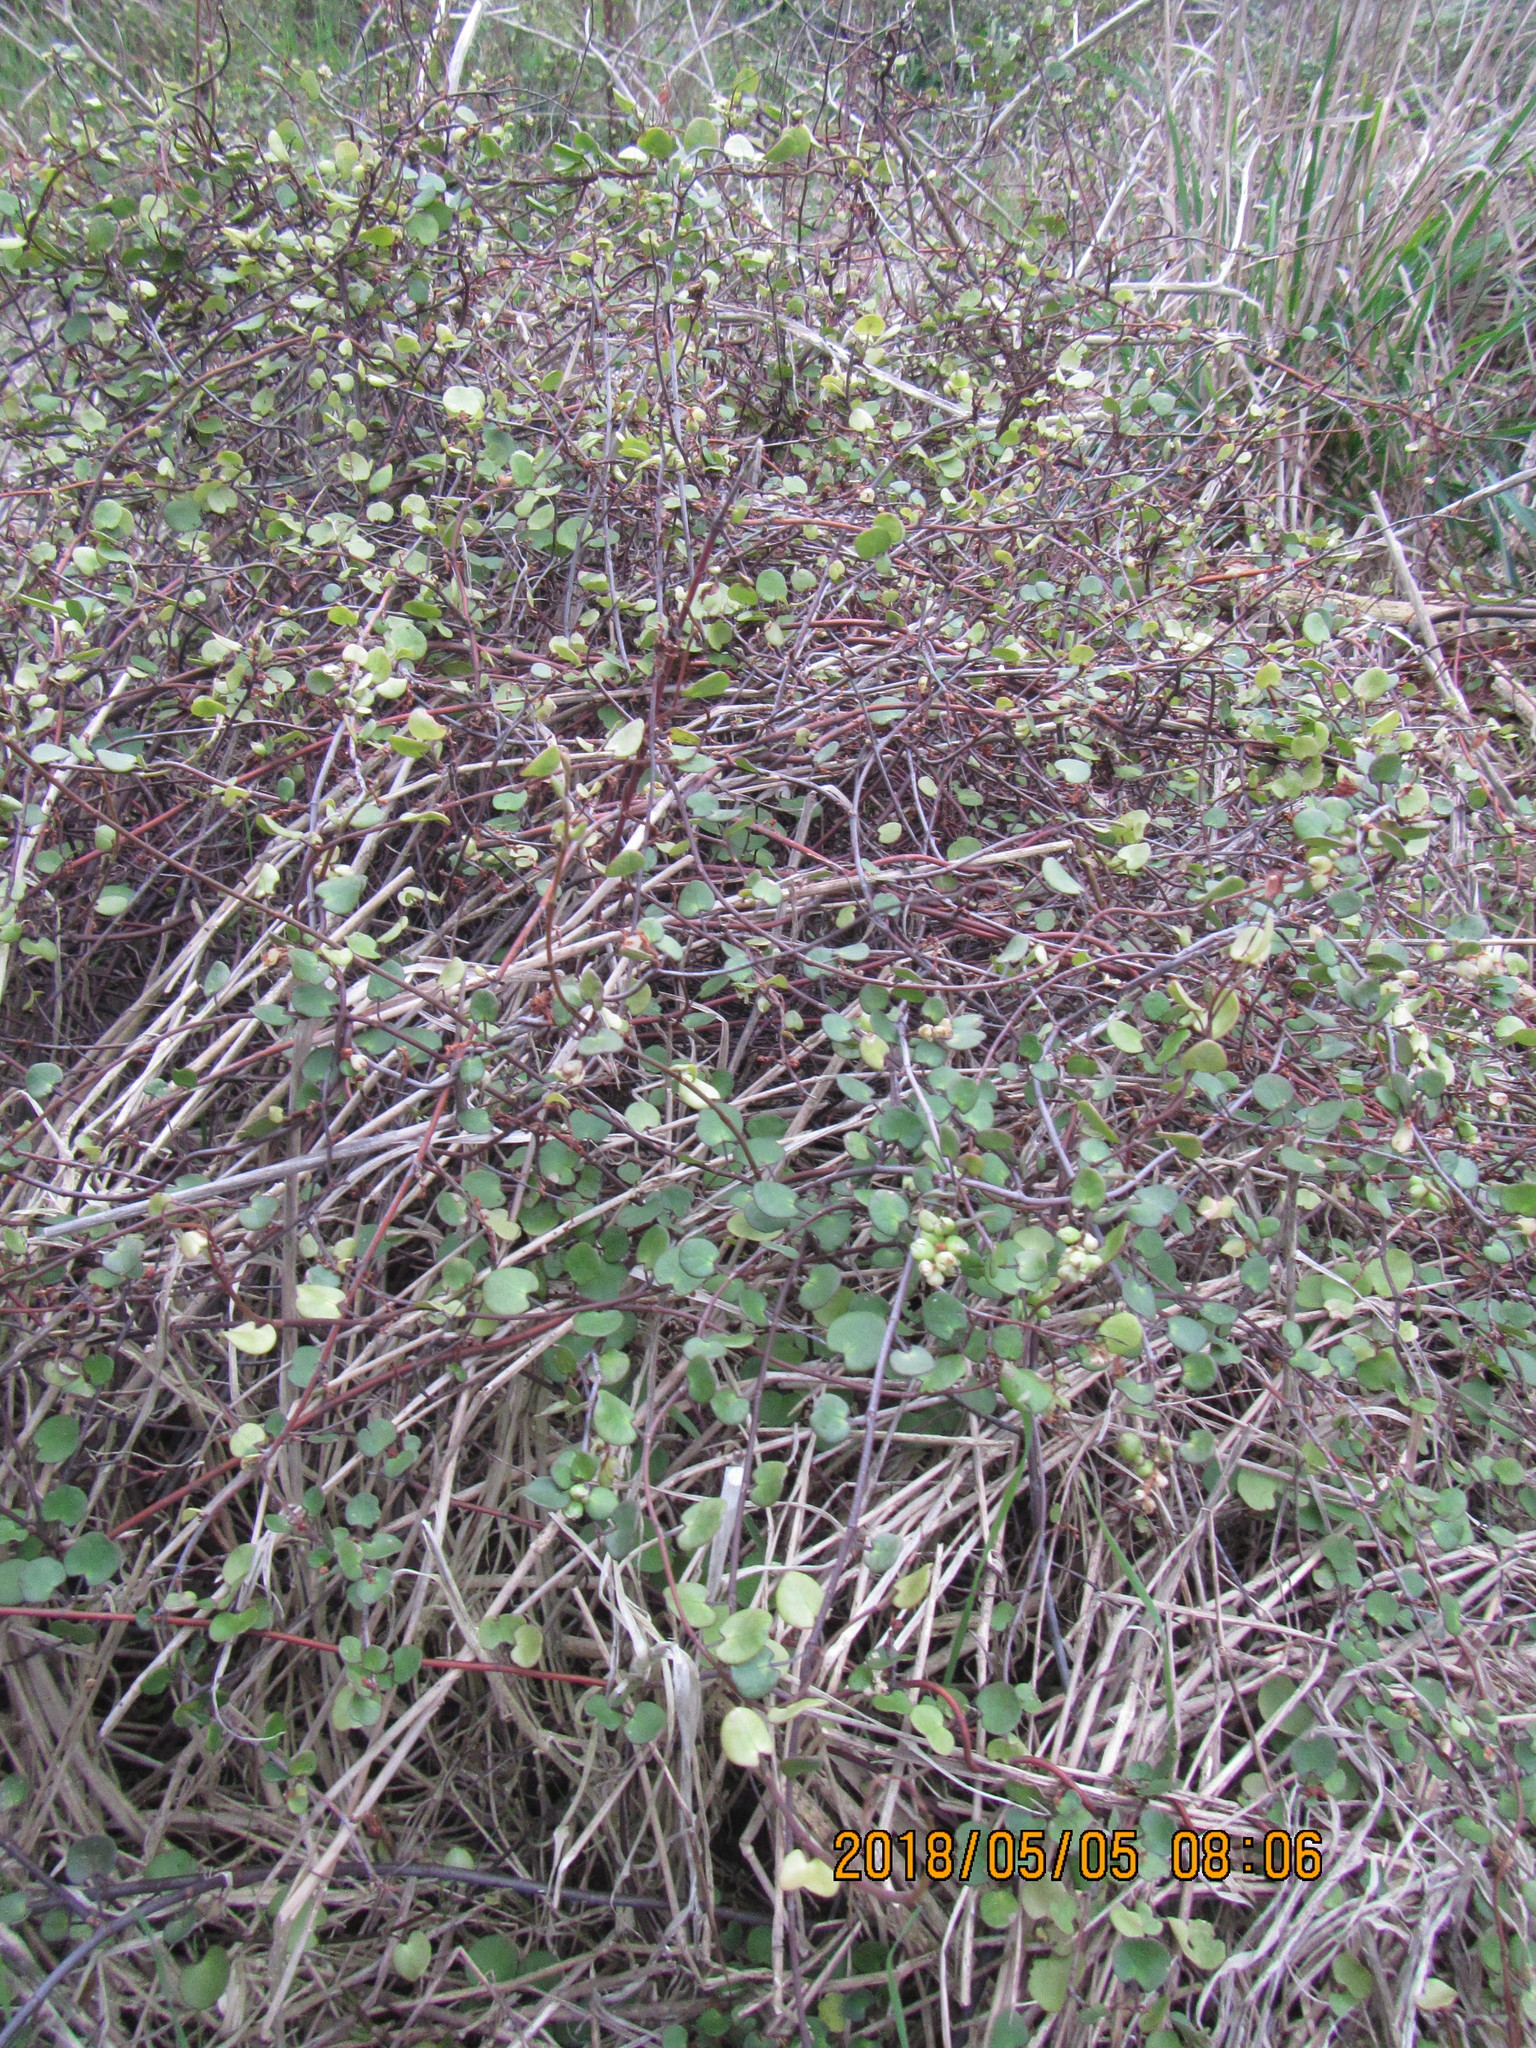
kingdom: Plantae
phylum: Tracheophyta
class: Magnoliopsida
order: Caryophyllales
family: Polygonaceae
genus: Muehlenbeckia
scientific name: Muehlenbeckia complexa
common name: Wireplant
